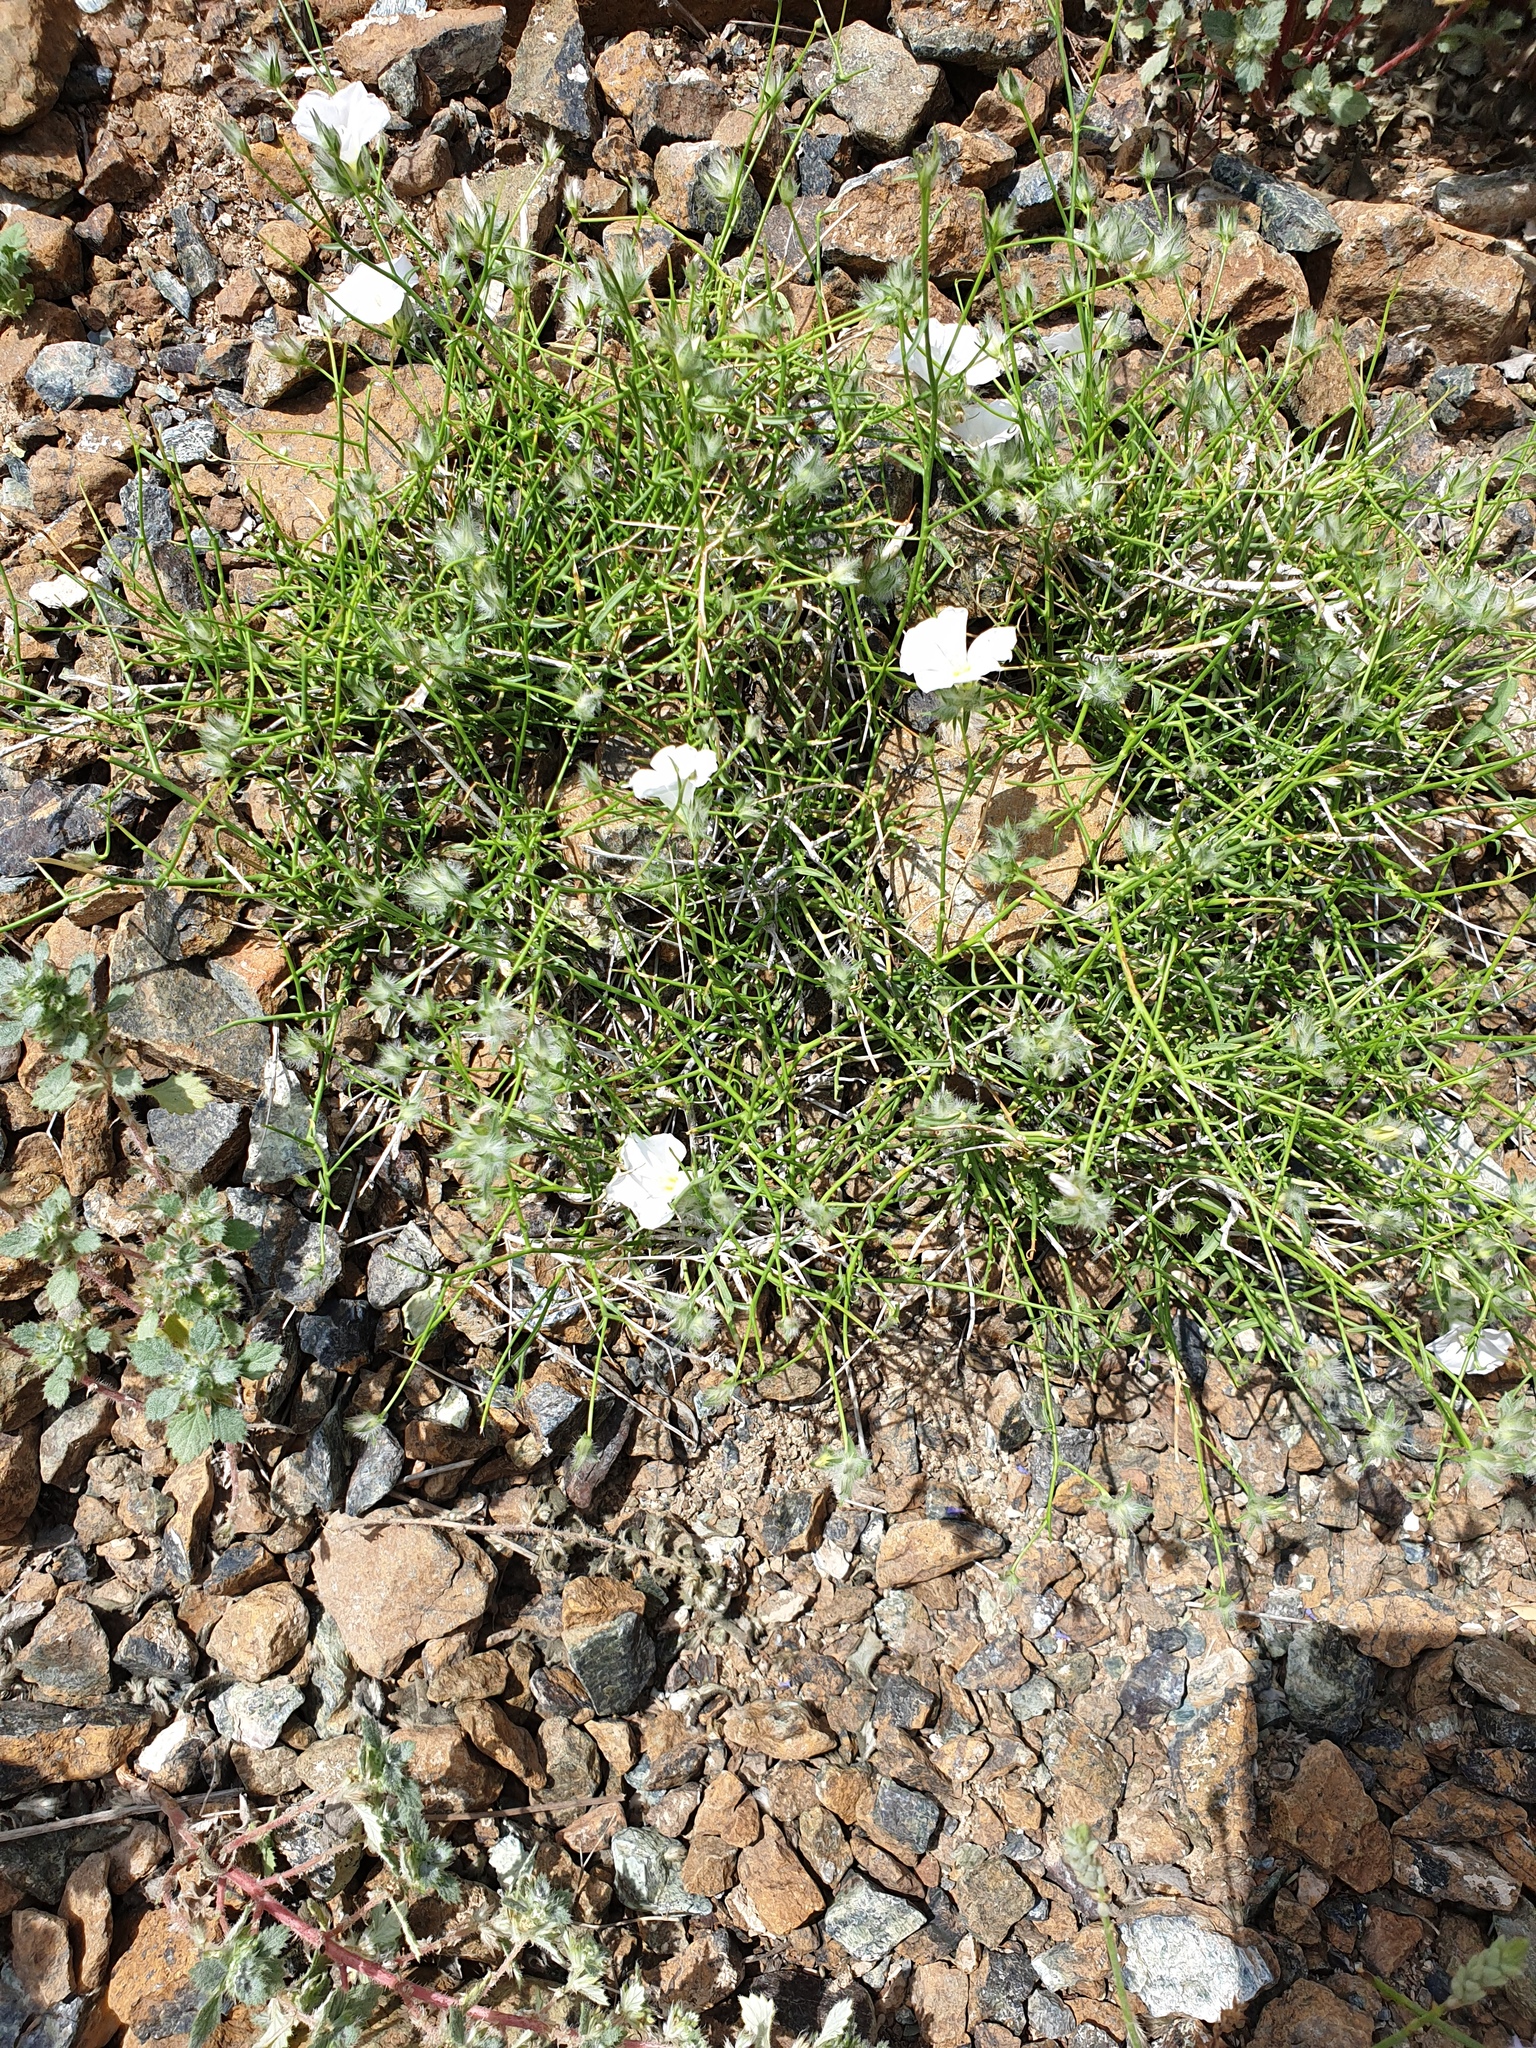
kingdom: Plantae
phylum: Tracheophyta
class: Magnoliopsida
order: Solanales
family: Convolvulaceae
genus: Convolvulus
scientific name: Convolvulus virgatus
